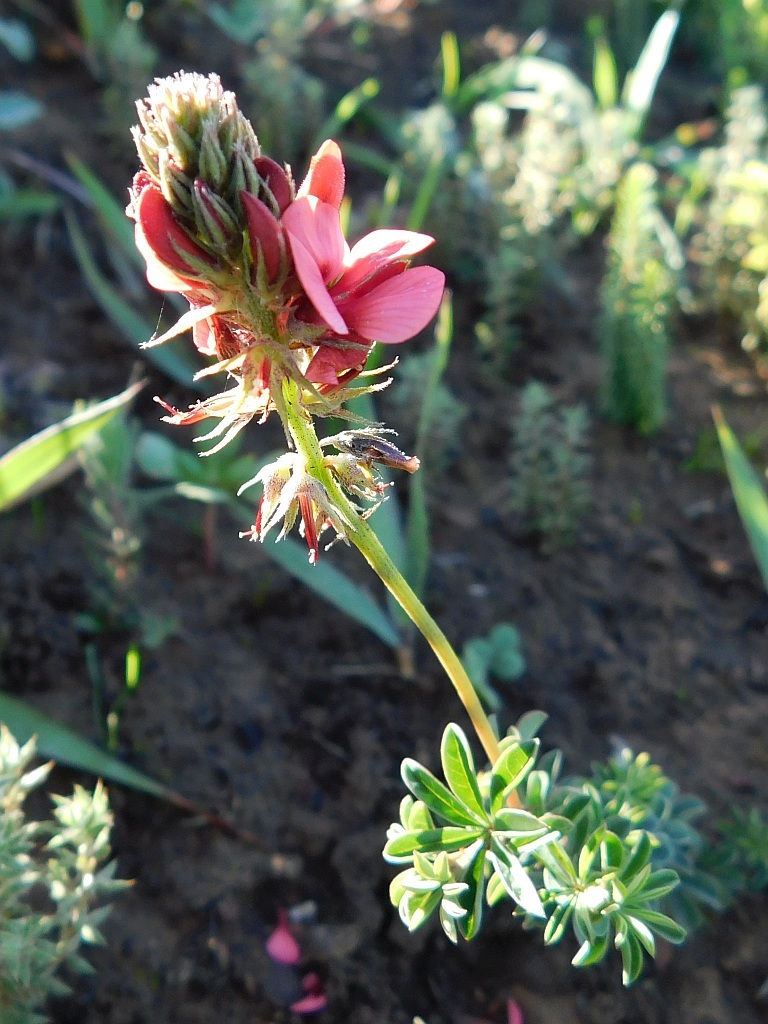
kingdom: Plantae
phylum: Tracheophyta
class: Magnoliopsida
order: Fabales
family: Fabaceae
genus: Indigofera
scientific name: Indigofera digitata
